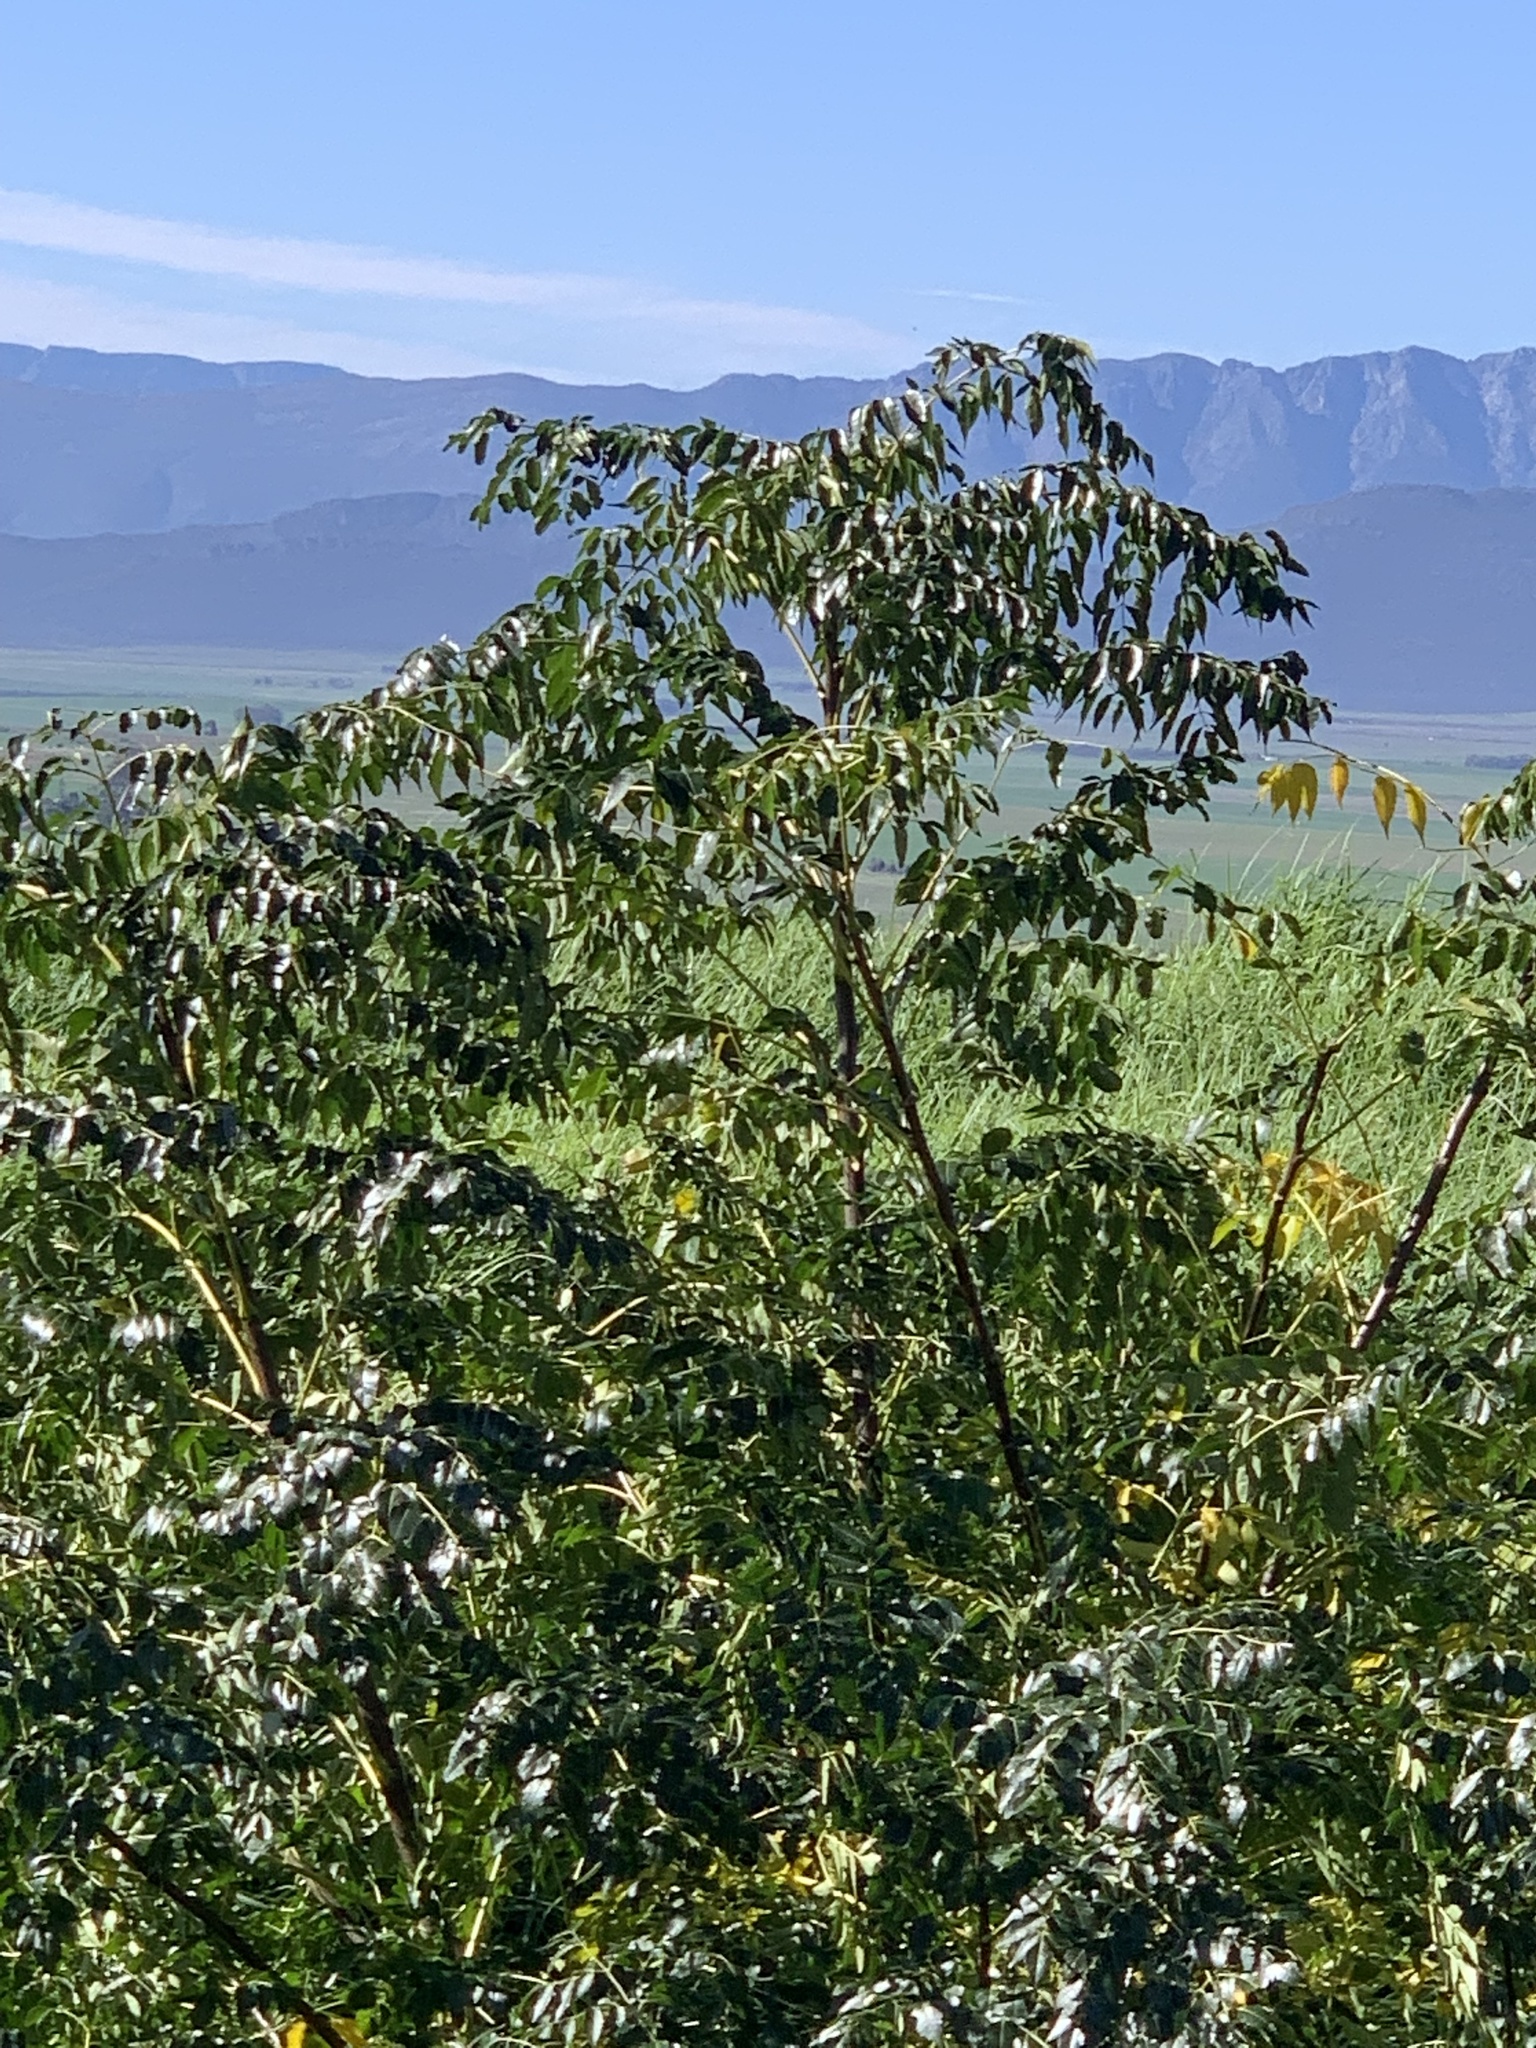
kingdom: Plantae
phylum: Tracheophyta
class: Magnoliopsida
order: Sapindales
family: Meliaceae
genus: Melia
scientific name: Melia azedarach
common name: Chinaberrytree
